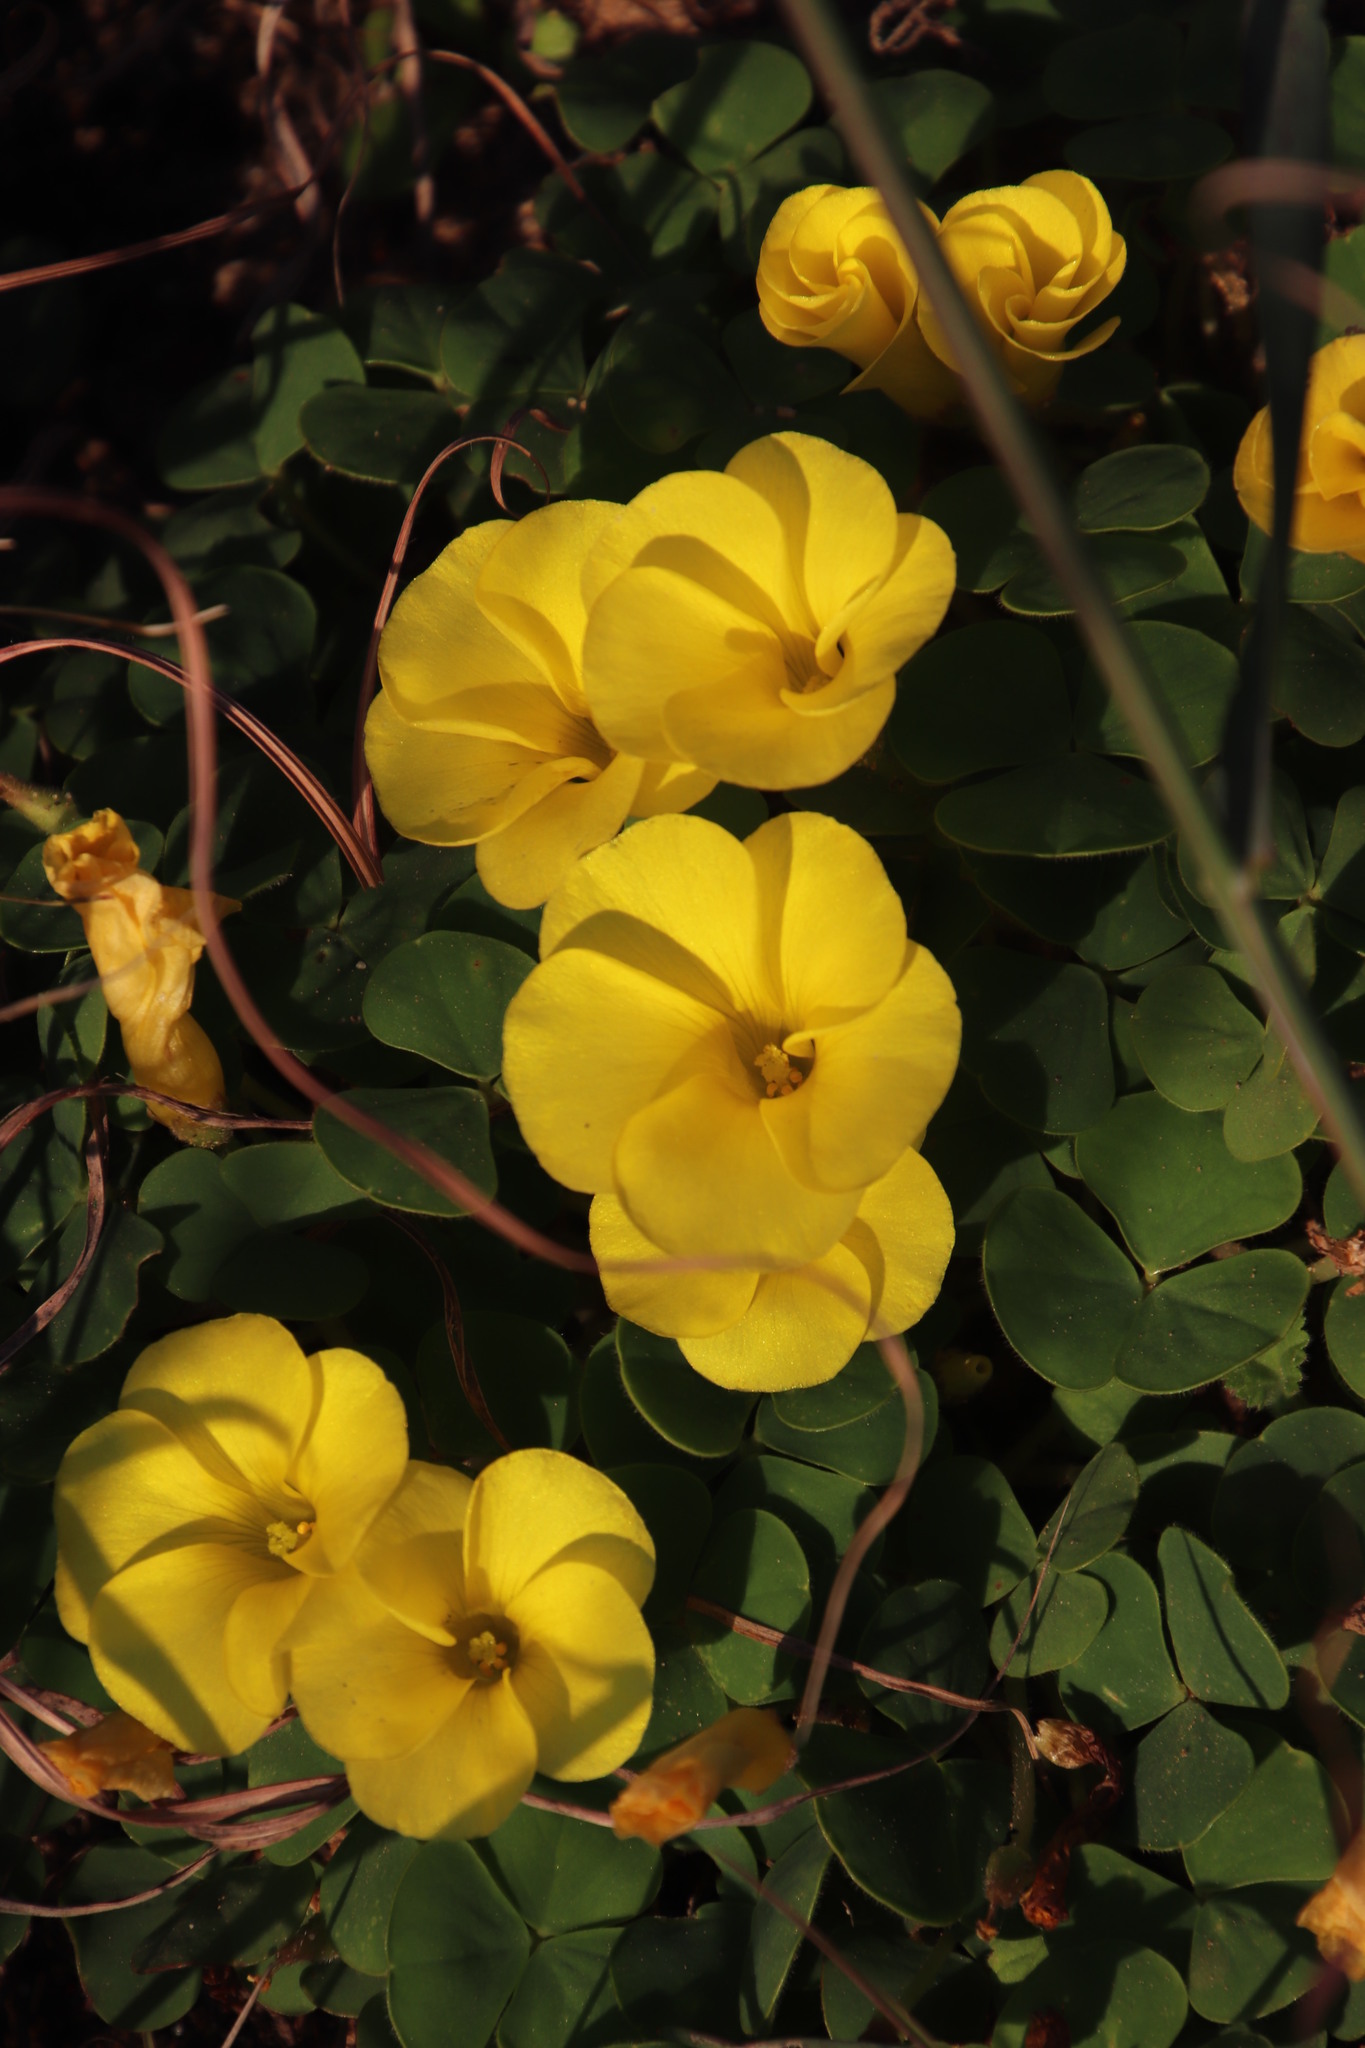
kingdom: Plantae
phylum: Tracheophyta
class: Magnoliopsida
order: Oxalidales
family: Oxalidaceae
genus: Oxalis
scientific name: Oxalis luteola
